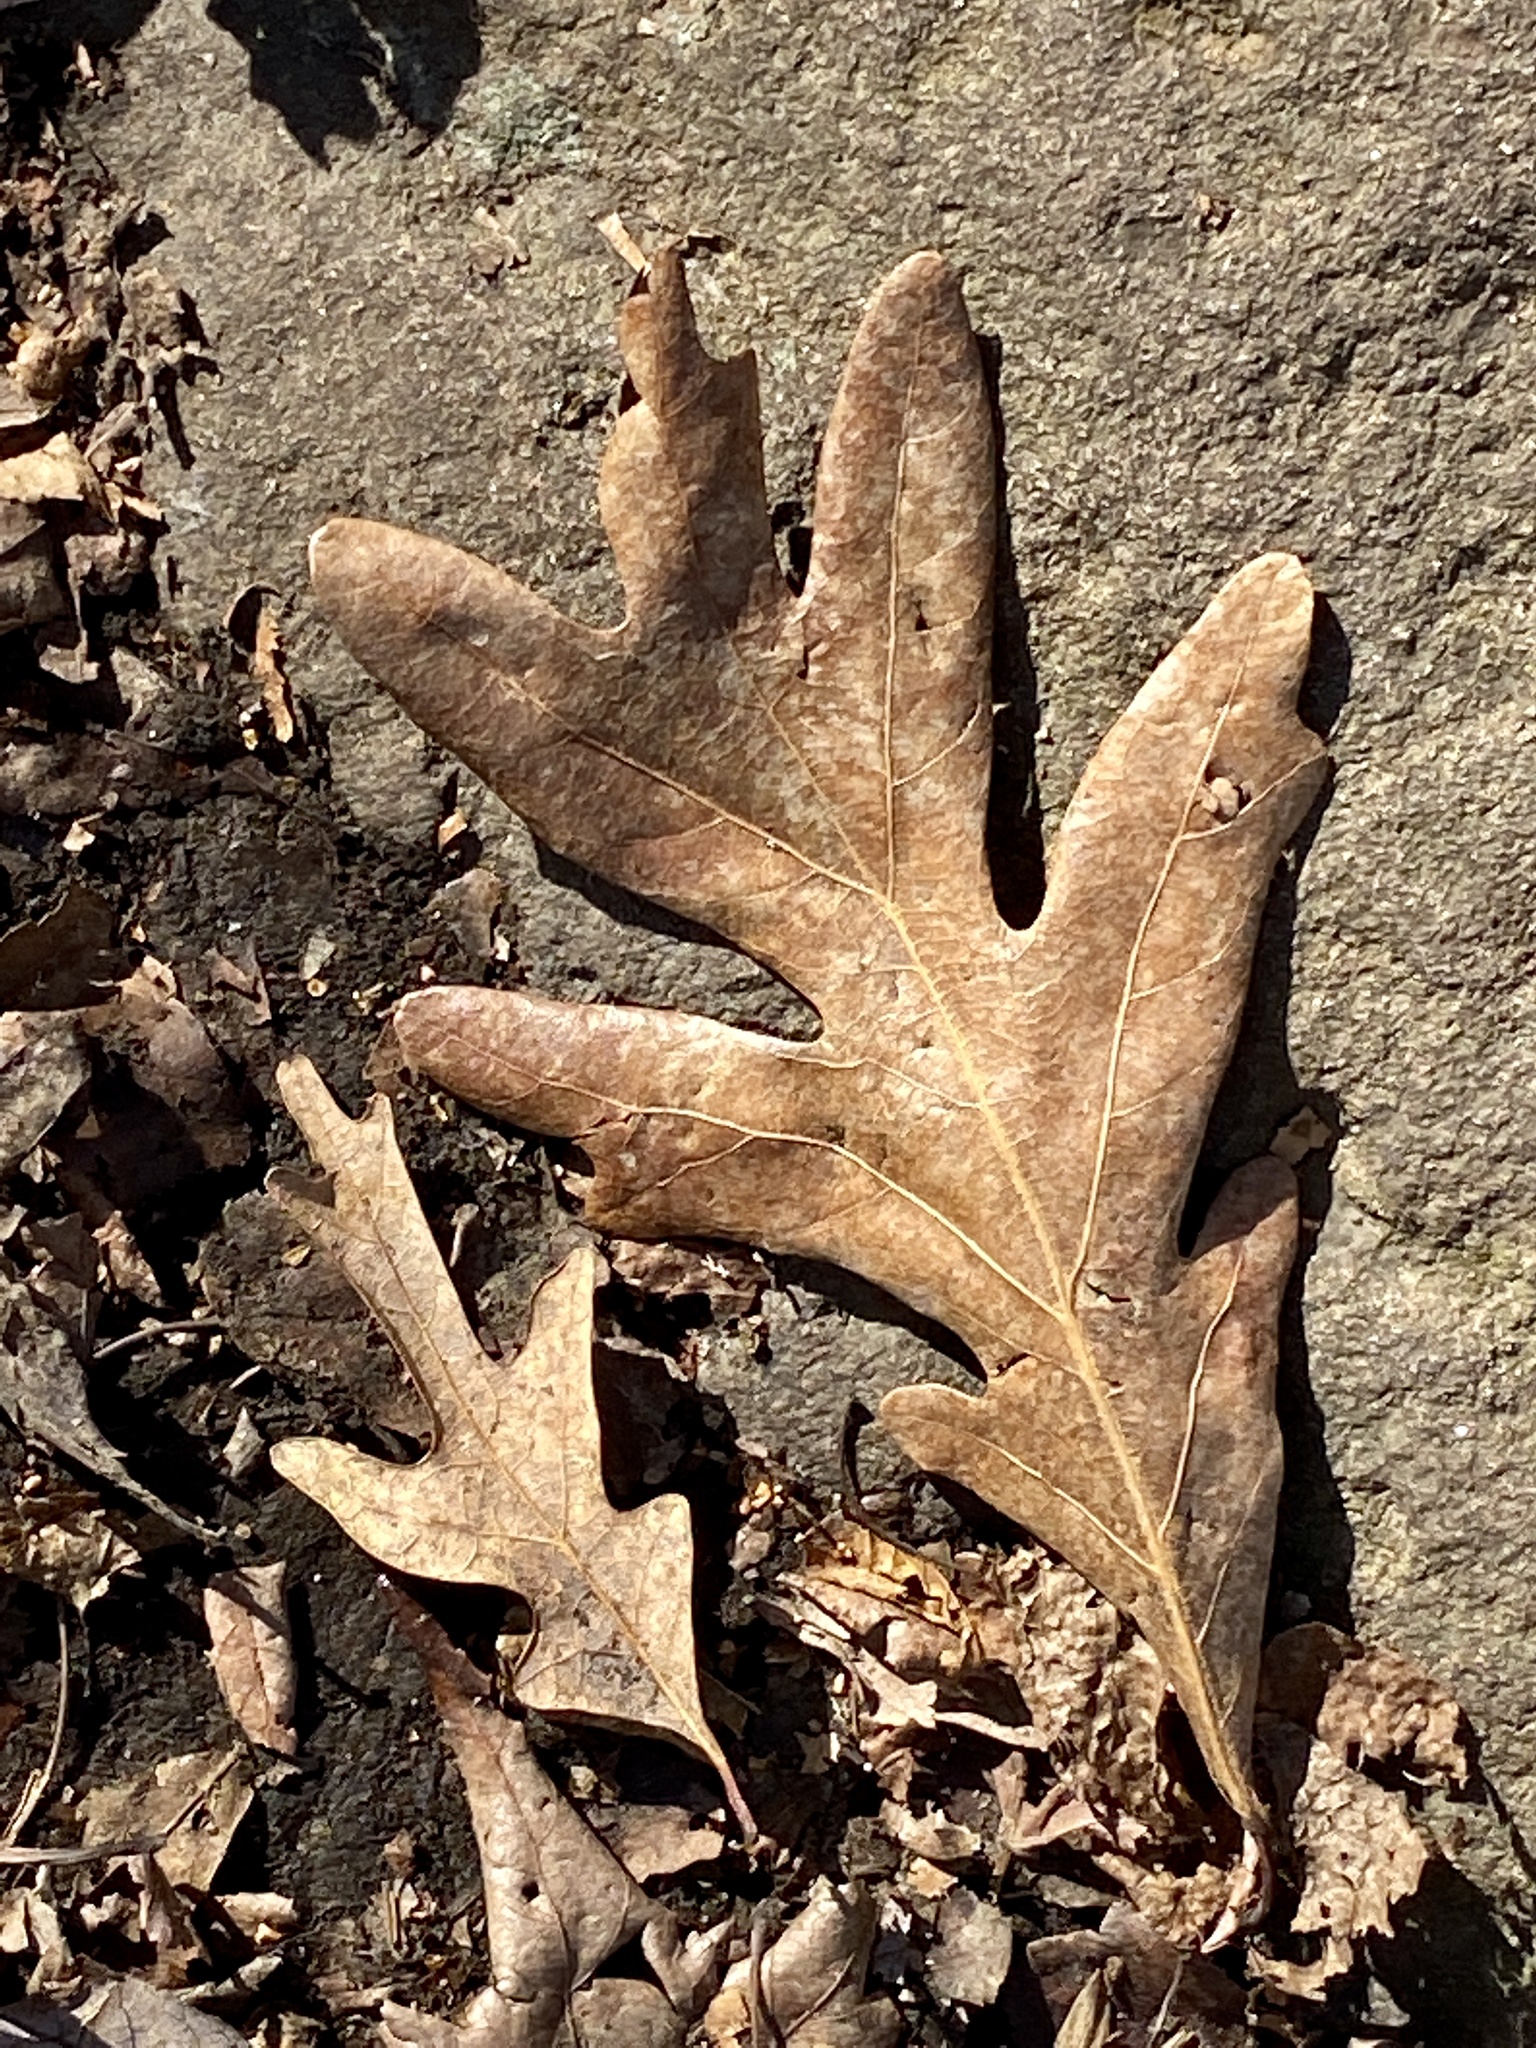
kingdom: Plantae
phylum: Tracheophyta
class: Magnoliopsida
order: Fagales
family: Fagaceae
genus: Quercus
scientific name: Quercus alba
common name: White oak
